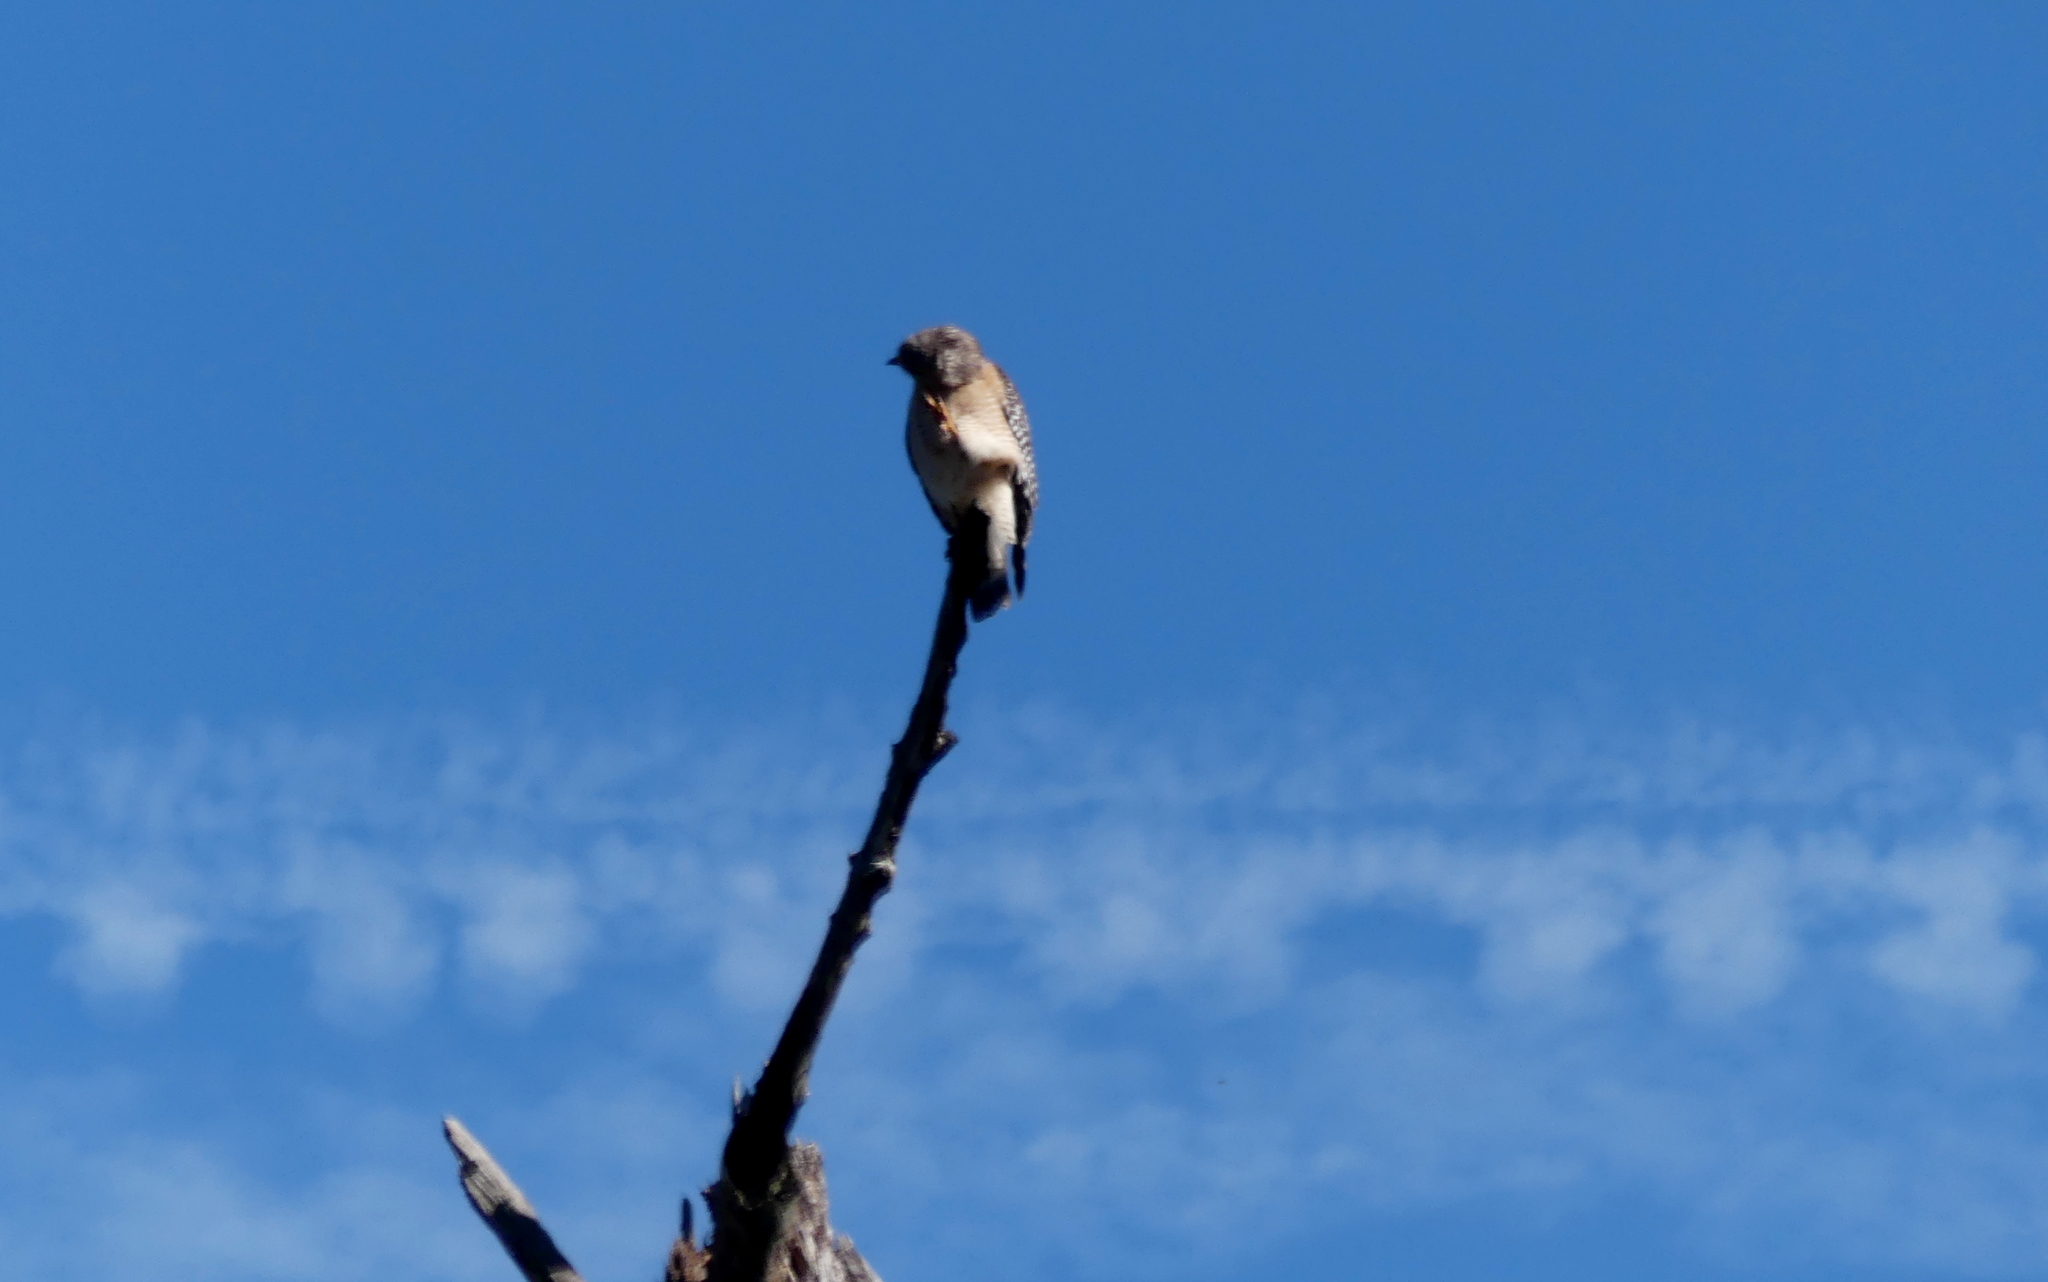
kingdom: Animalia
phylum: Chordata
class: Aves
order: Accipitriformes
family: Accipitridae
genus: Buteo
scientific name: Buteo lineatus
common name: Red-shouldered hawk
